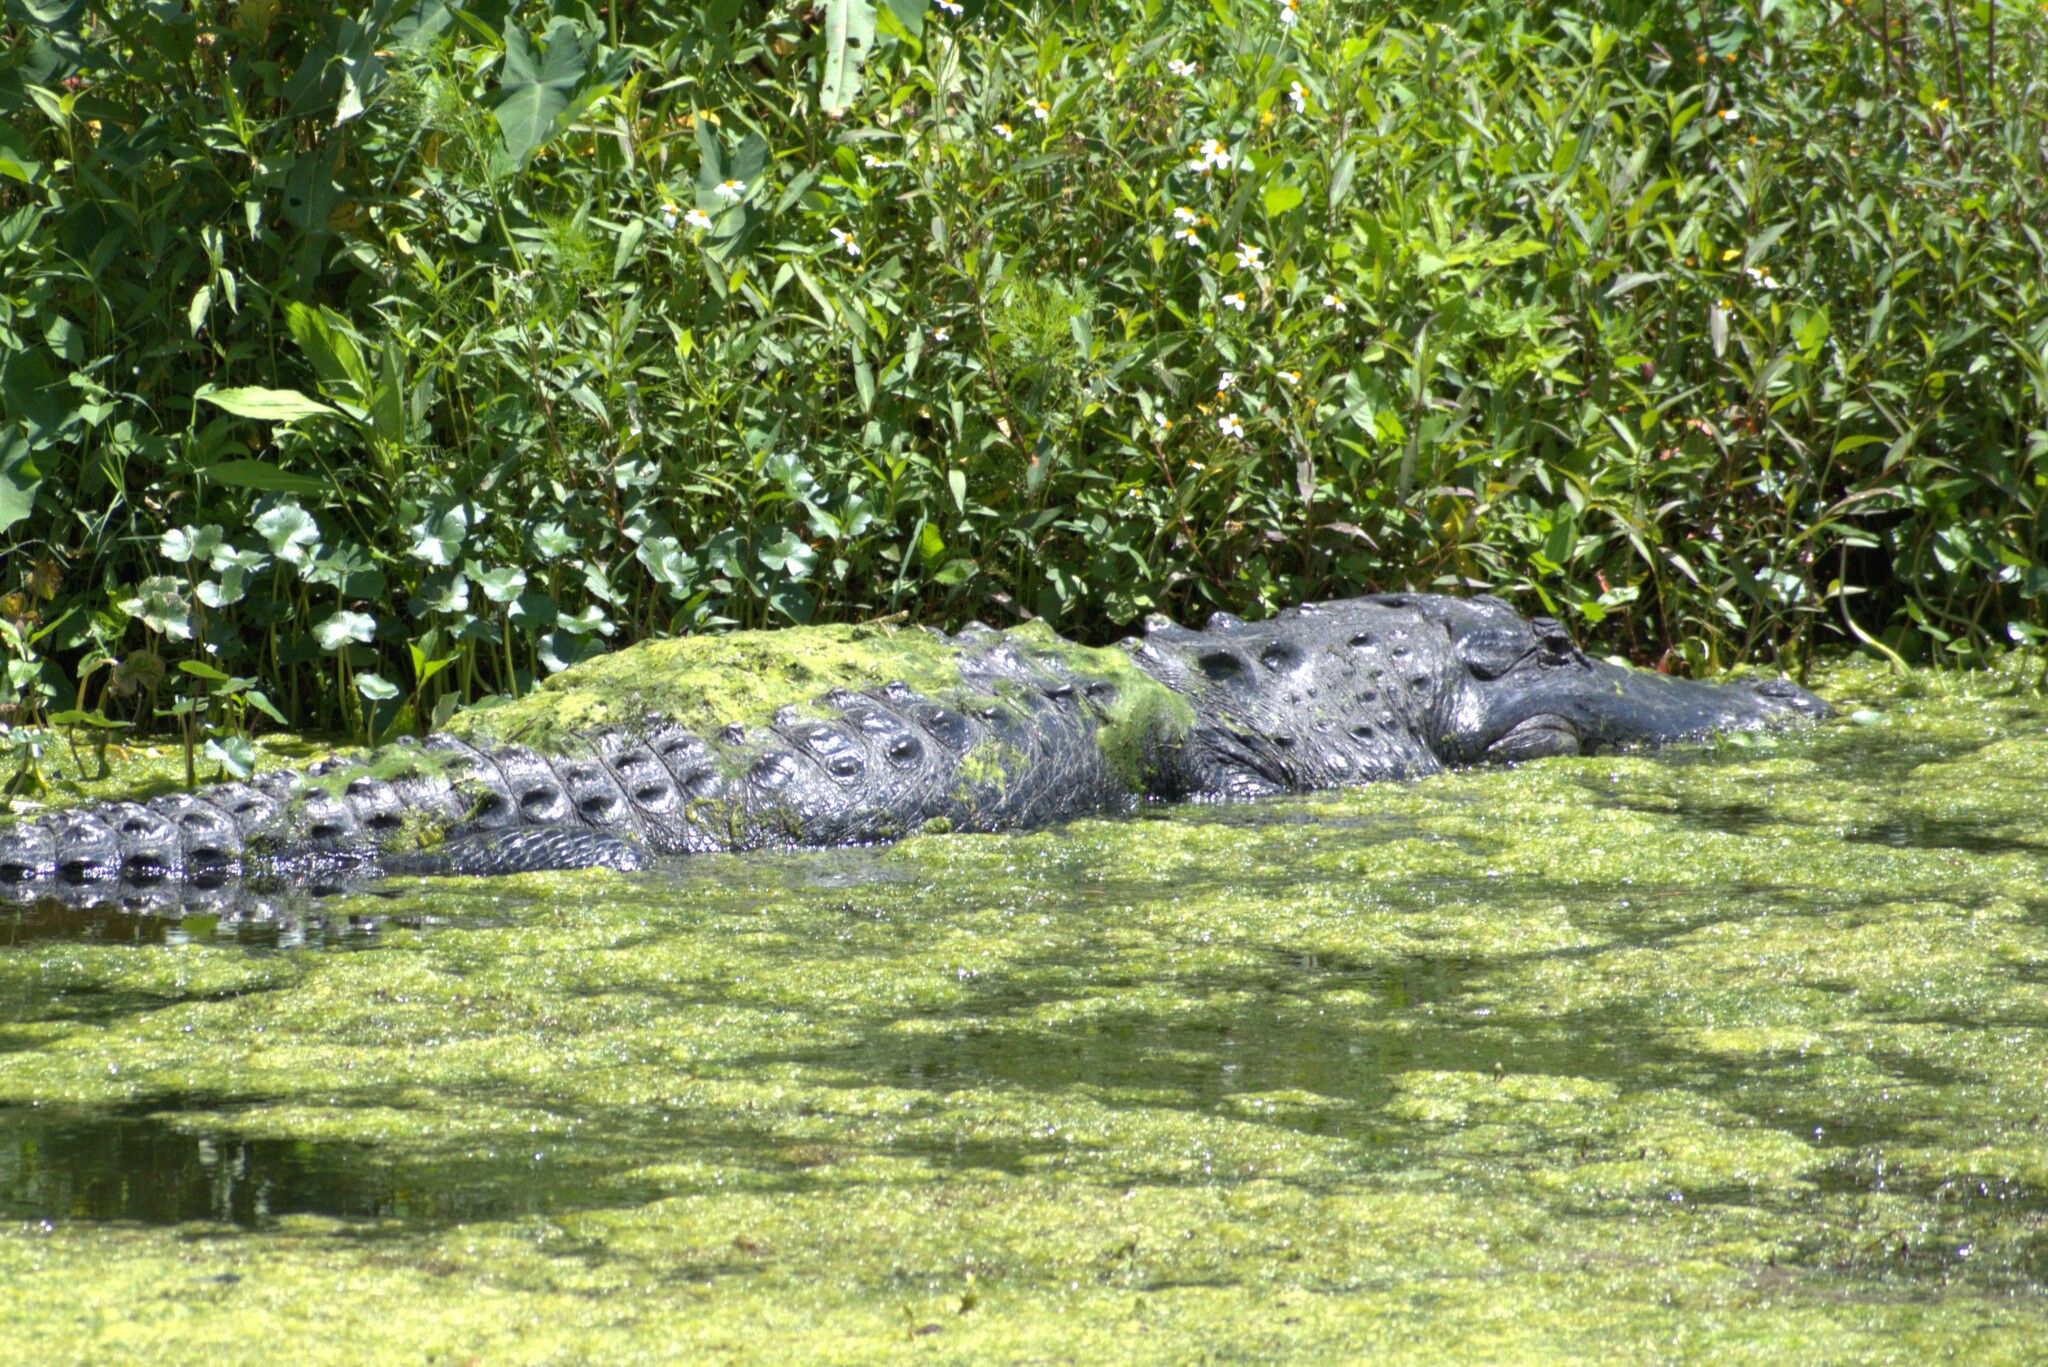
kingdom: Animalia
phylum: Chordata
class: Crocodylia
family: Alligatoridae
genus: Alligator
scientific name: Alligator mississippiensis
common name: American alligator
